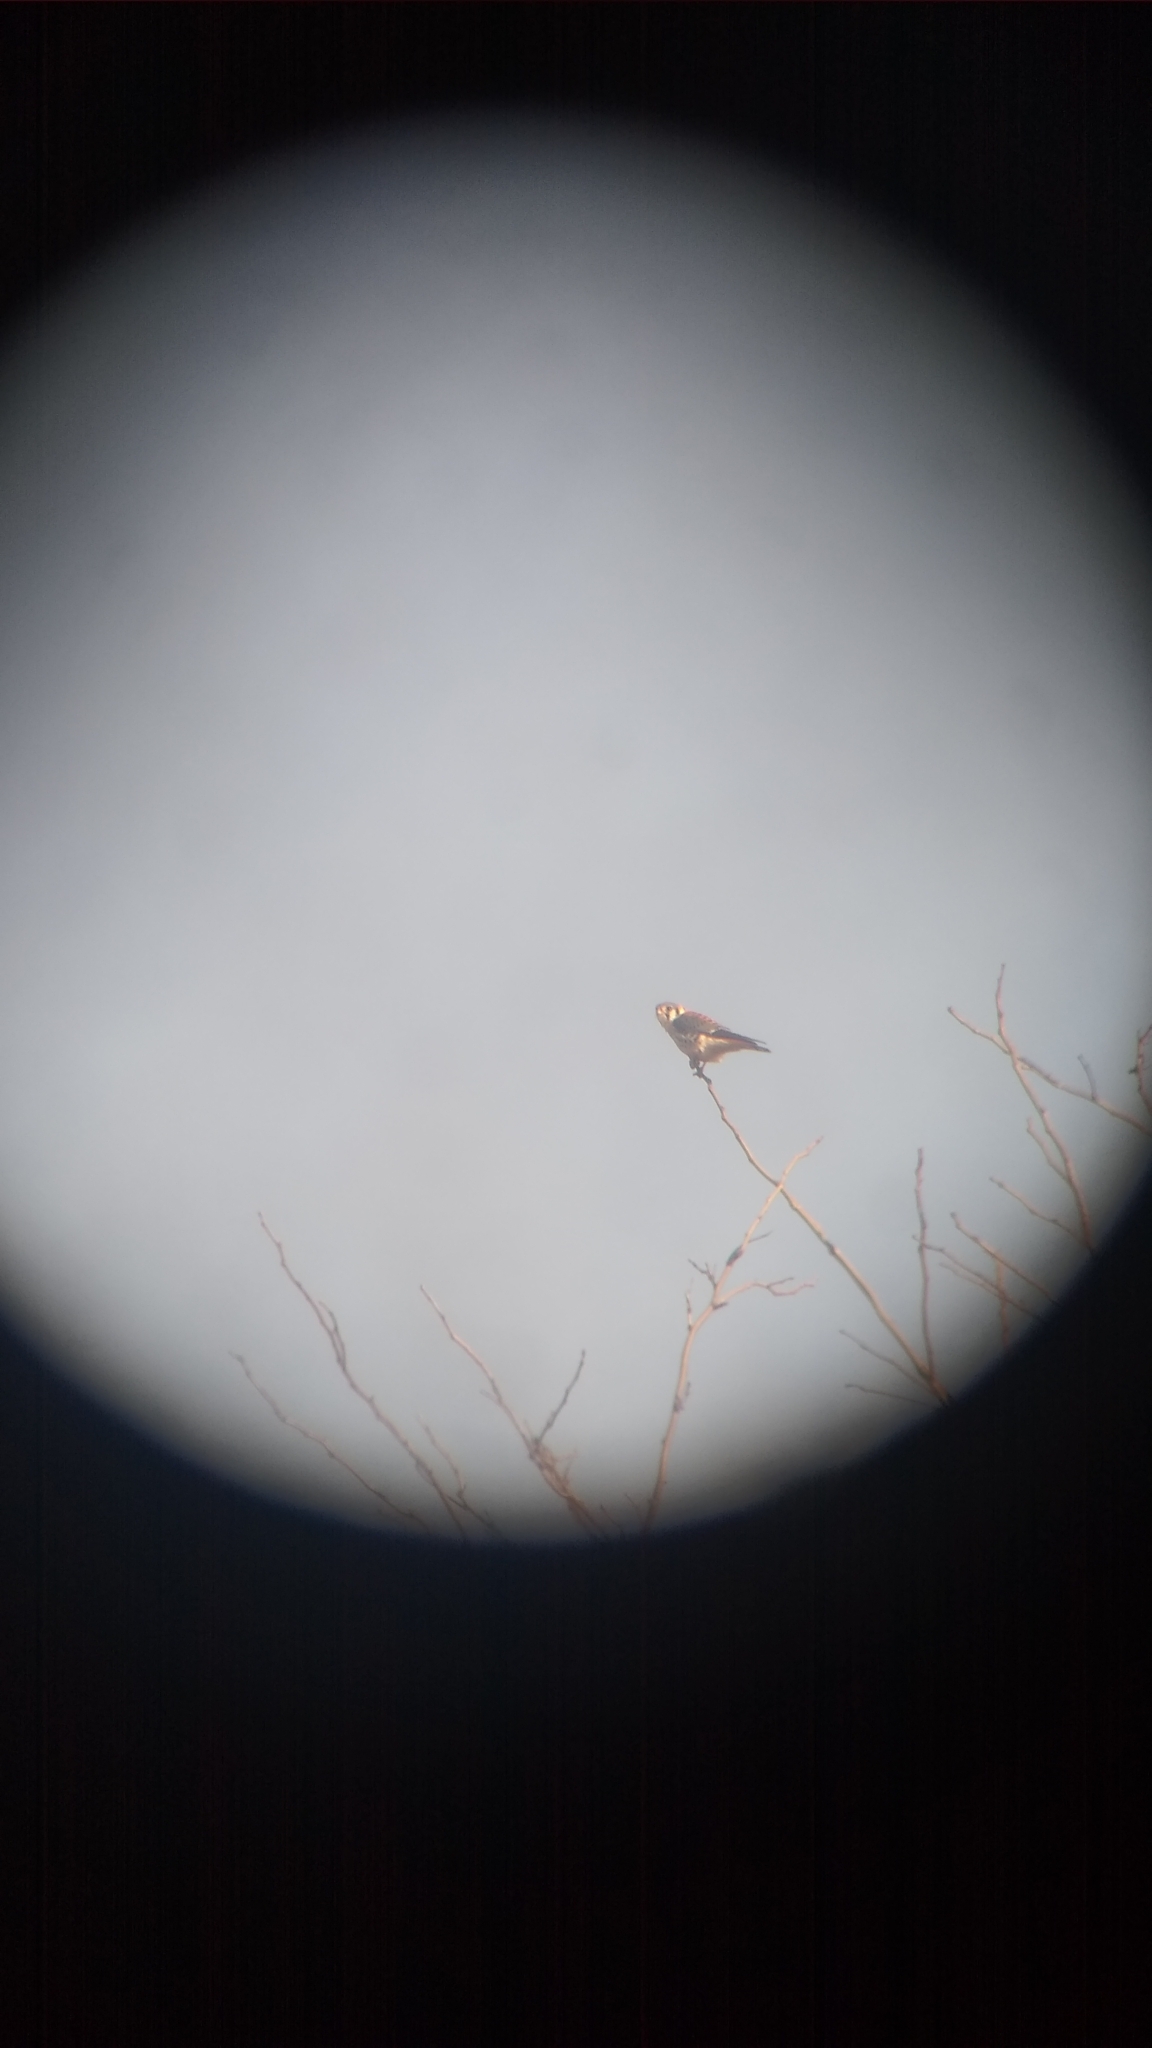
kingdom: Animalia
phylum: Chordata
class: Aves
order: Falconiformes
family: Falconidae
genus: Falco
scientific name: Falco sparverius
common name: American kestrel
